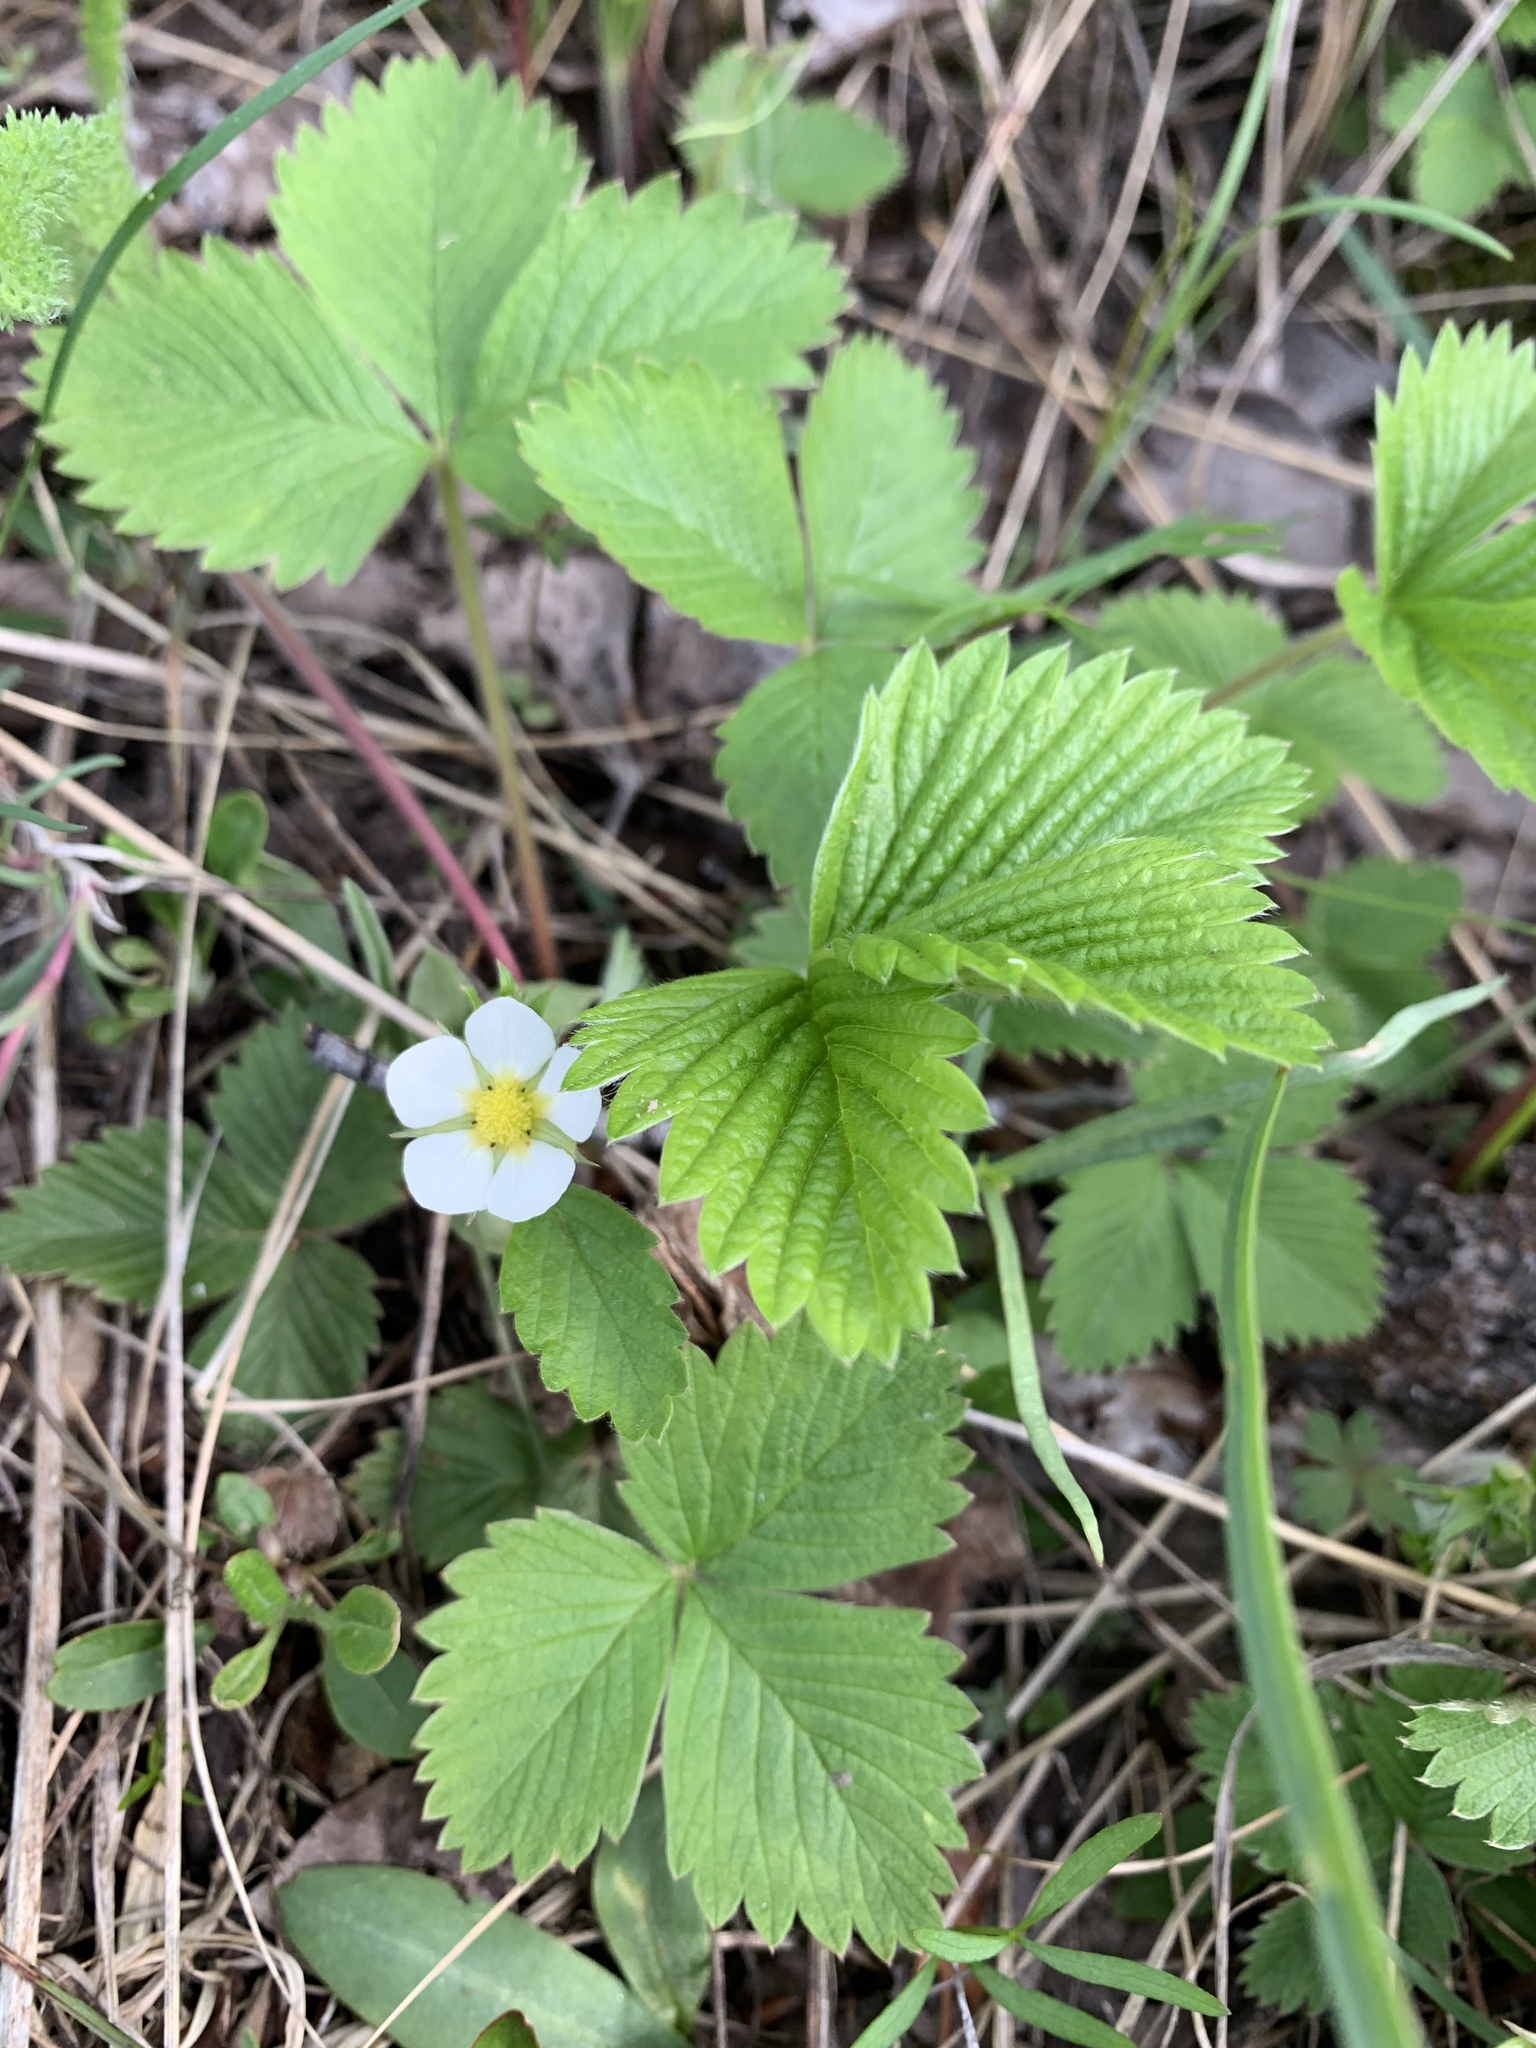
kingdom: Plantae
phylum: Tracheophyta
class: Magnoliopsida
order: Rosales
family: Rosaceae
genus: Fragaria
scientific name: Fragaria vesca
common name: Wild strawberry
